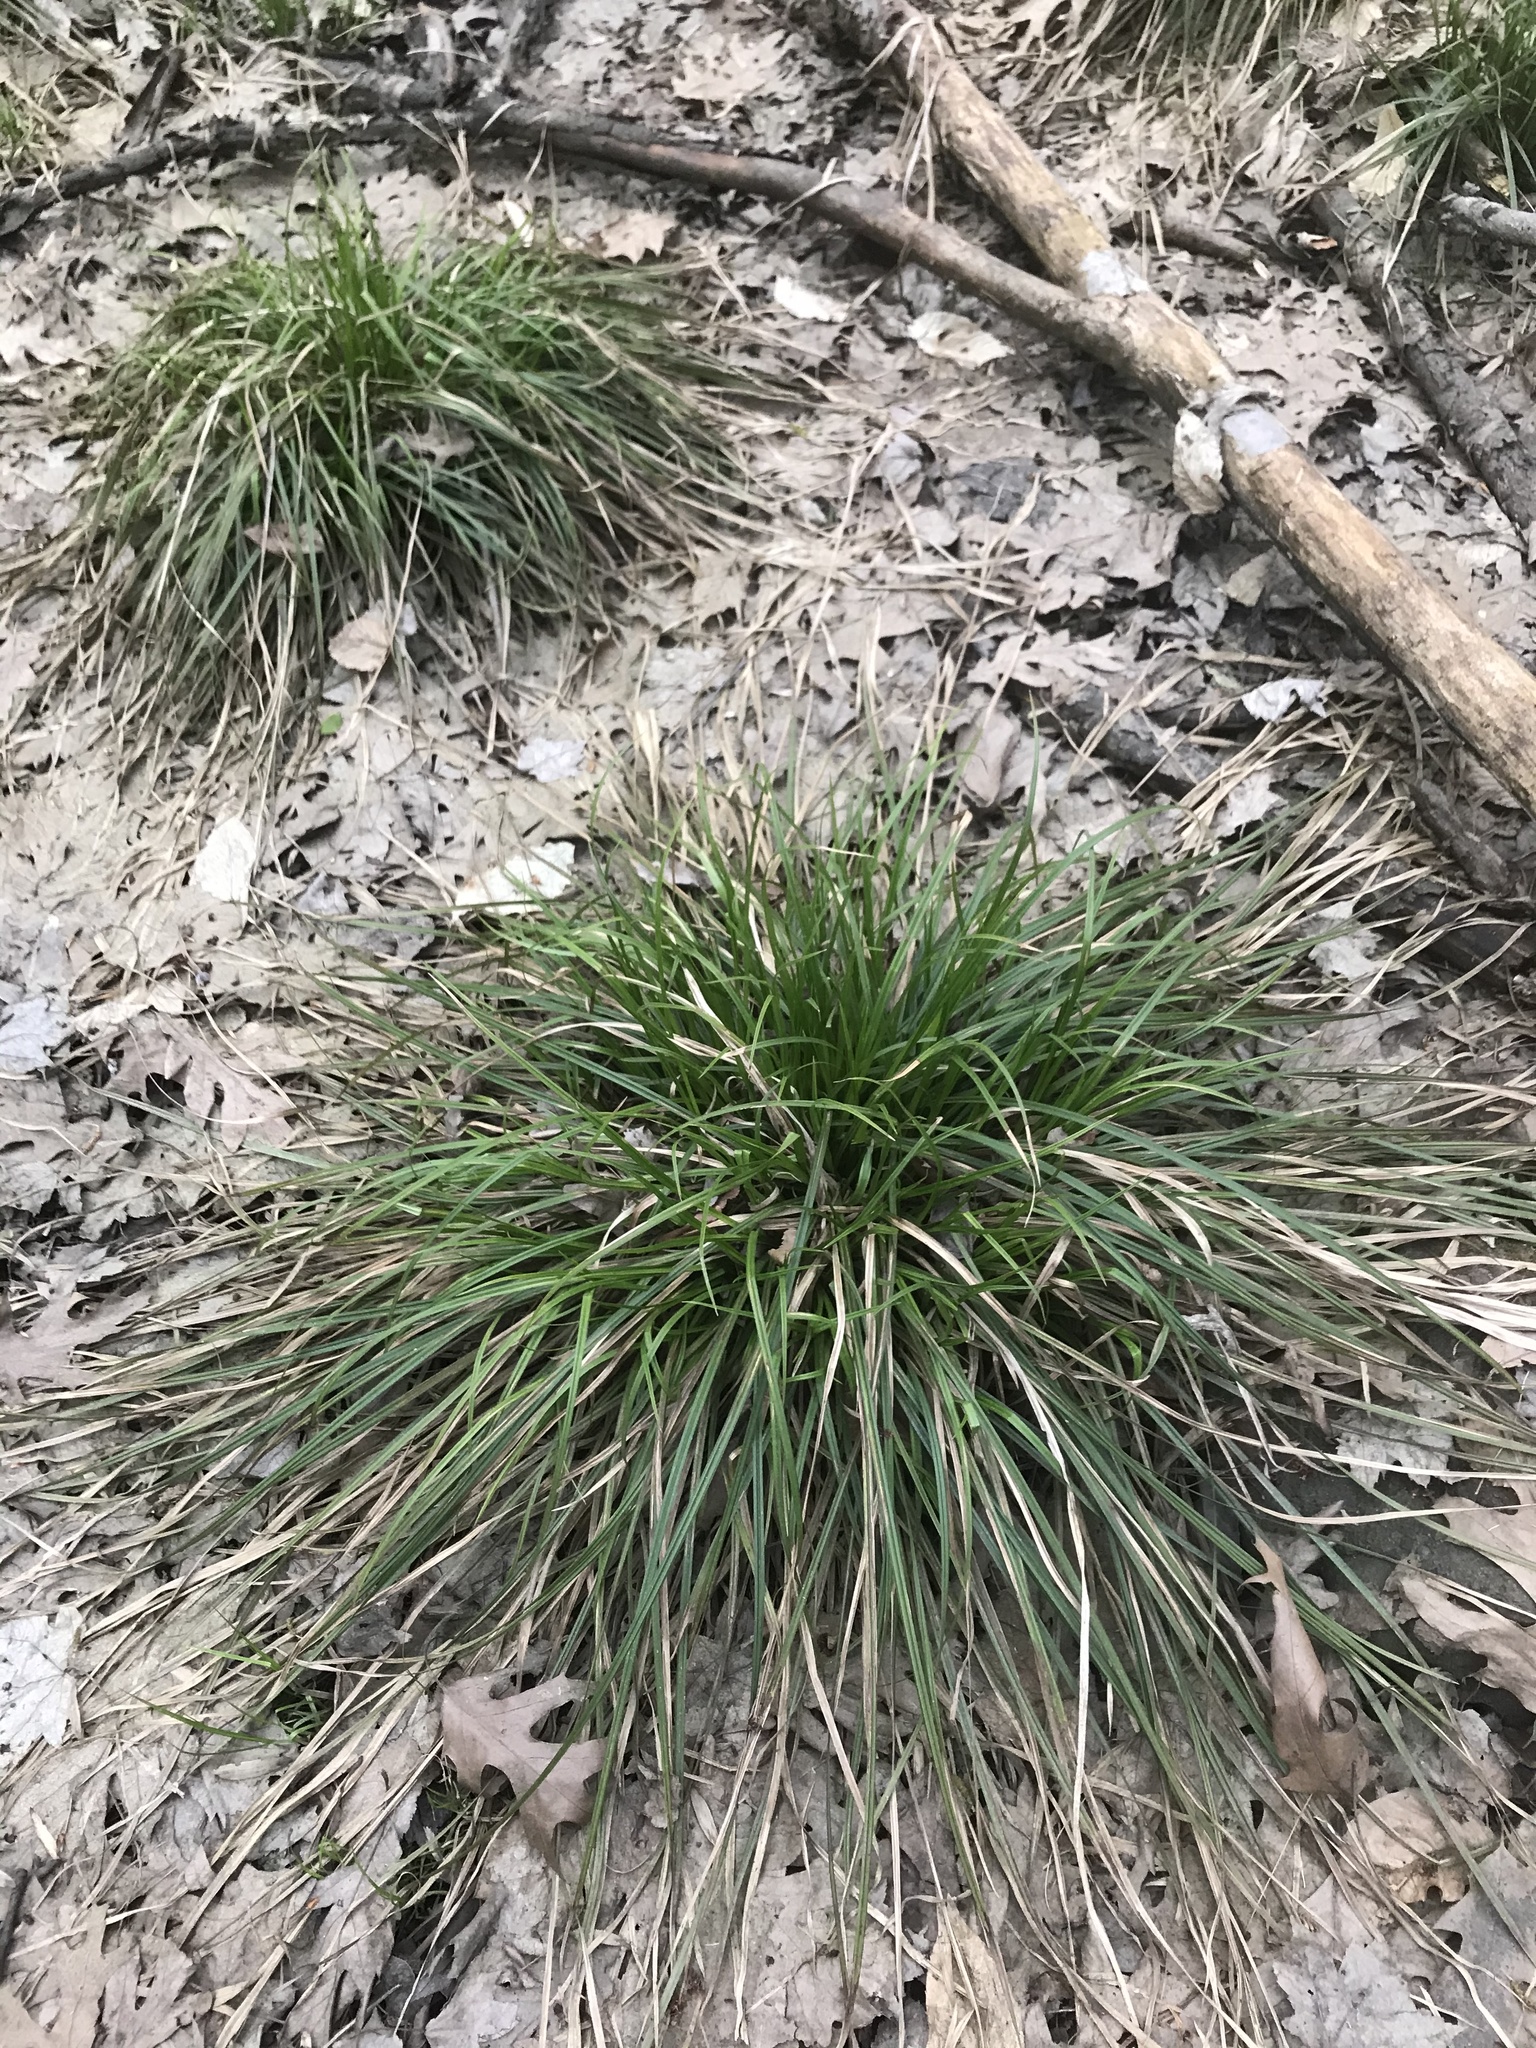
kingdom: Plantae
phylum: Tracheophyta
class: Liliopsida
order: Poales
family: Cyperaceae
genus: Carex
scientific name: Carex
